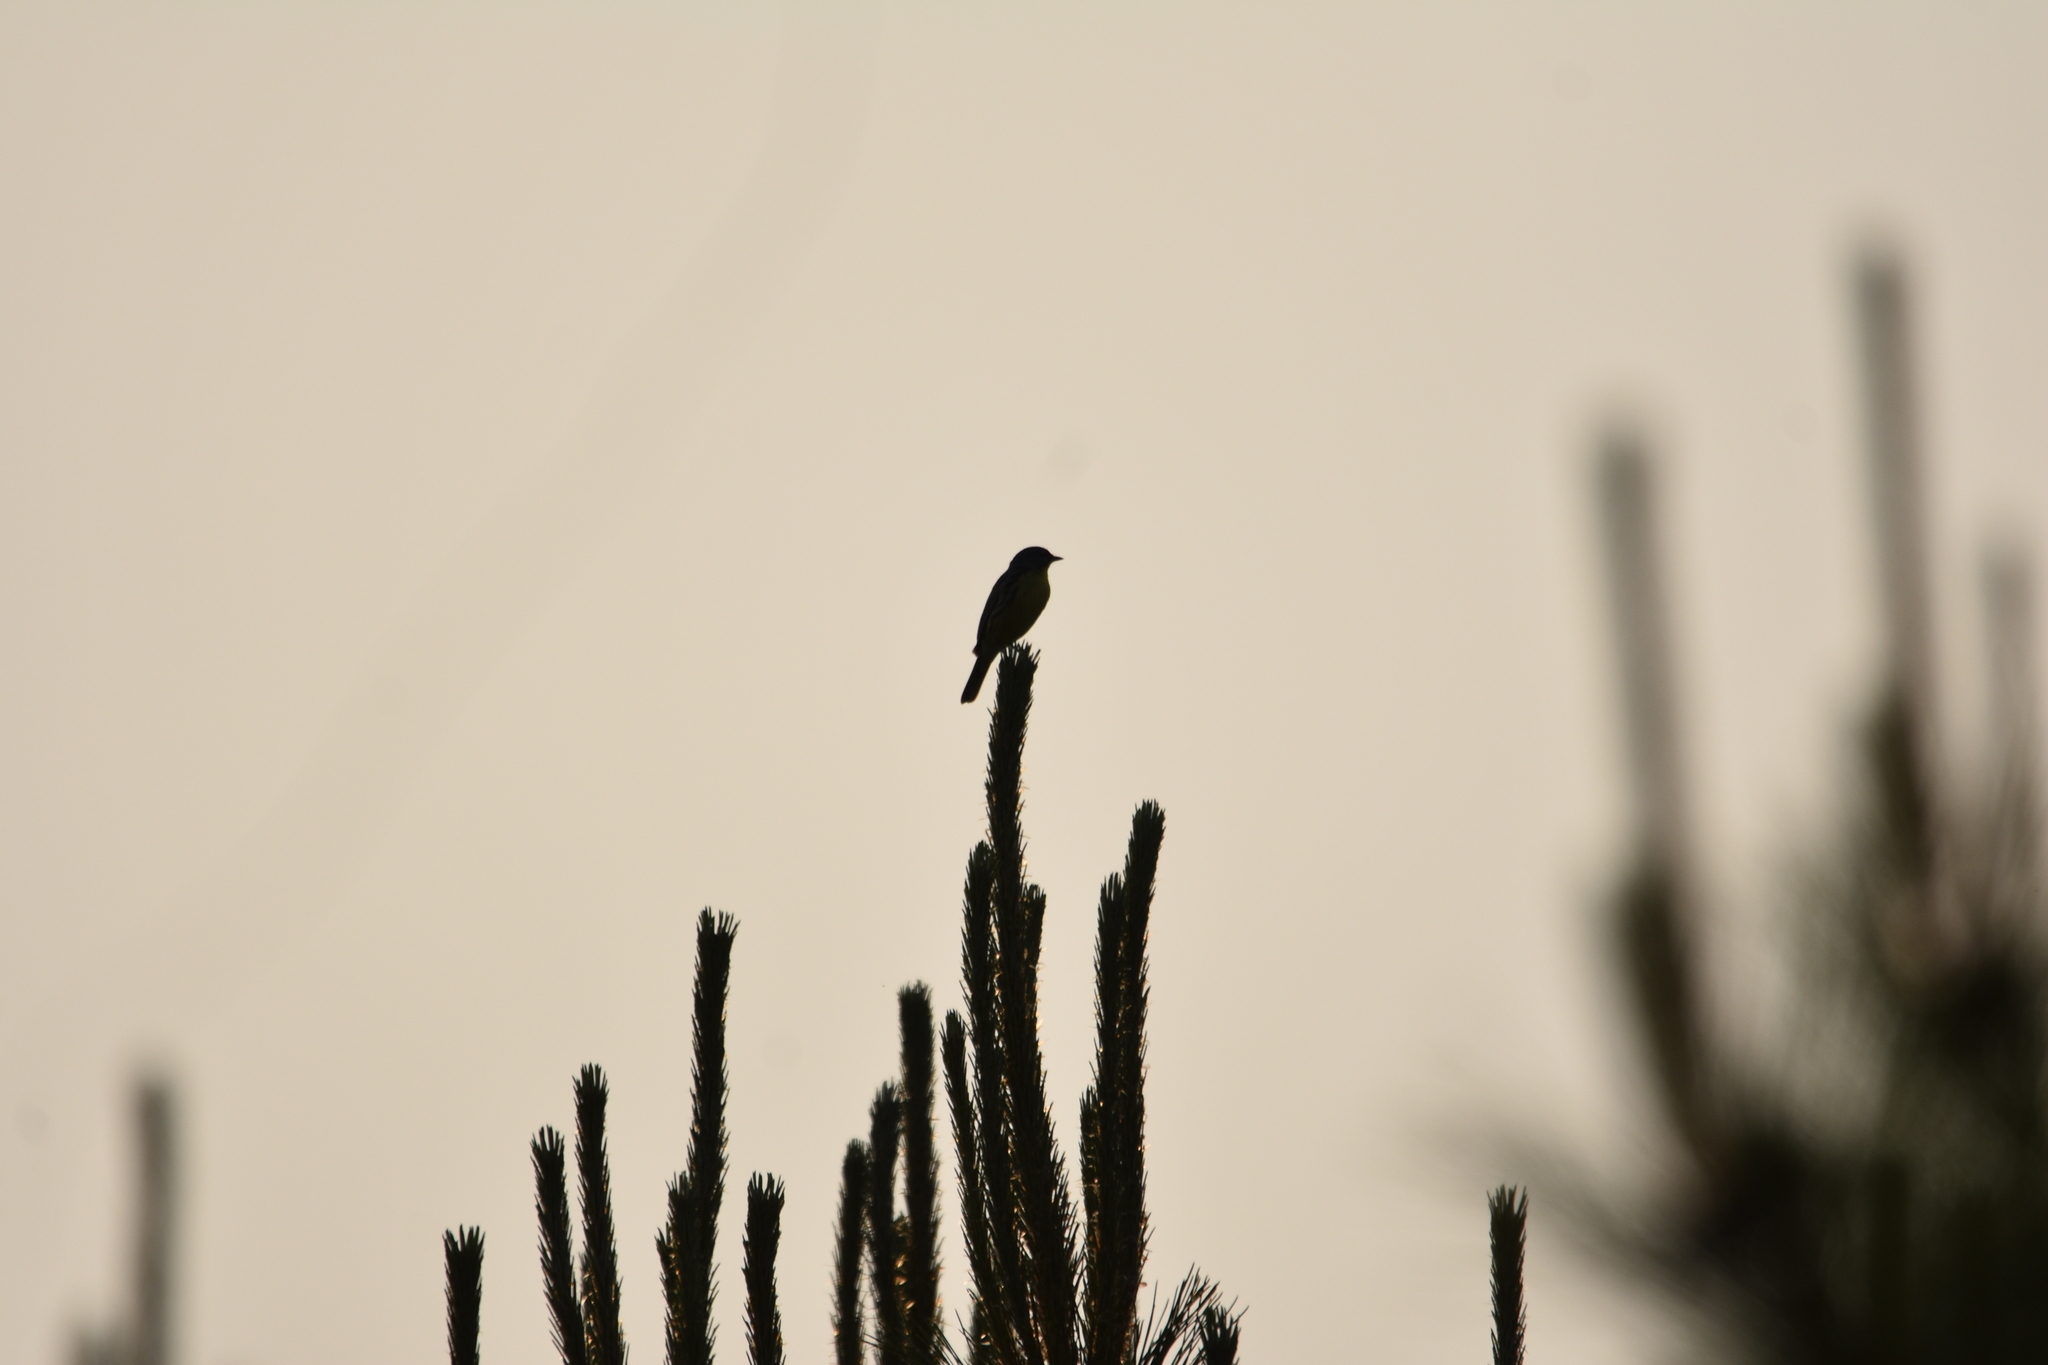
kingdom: Animalia
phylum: Chordata
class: Aves
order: Passeriformes
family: Parulidae
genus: Setophaga
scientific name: Setophaga kirtlandii
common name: Kirtland's warbler
